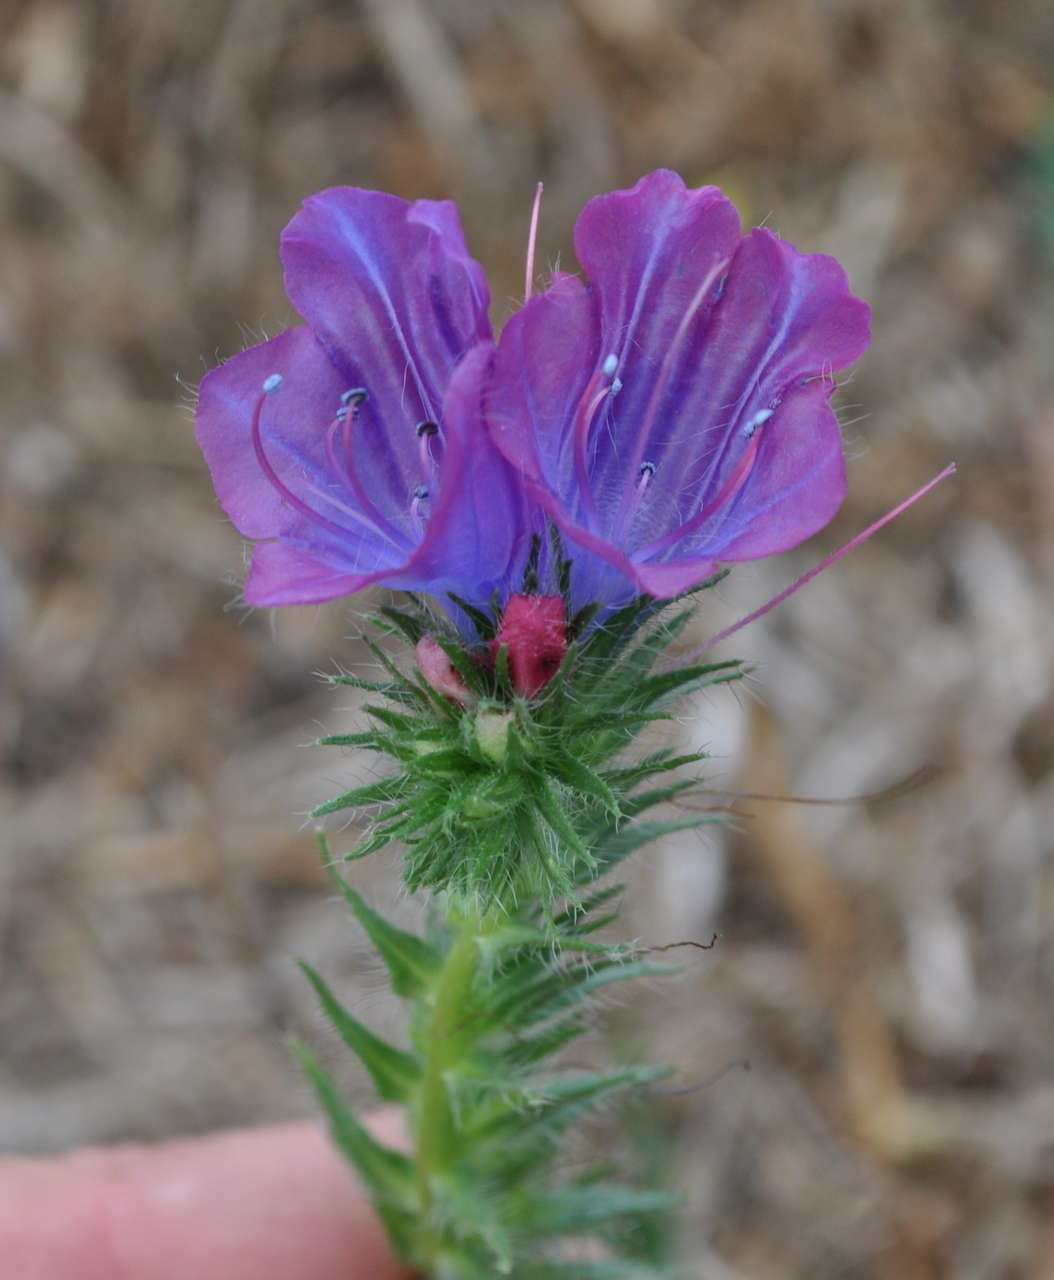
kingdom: Plantae
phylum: Tracheophyta
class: Magnoliopsida
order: Boraginales
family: Boraginaceae
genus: Echium
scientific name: Echium plantagineum
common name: Purple viper's-bugloss
